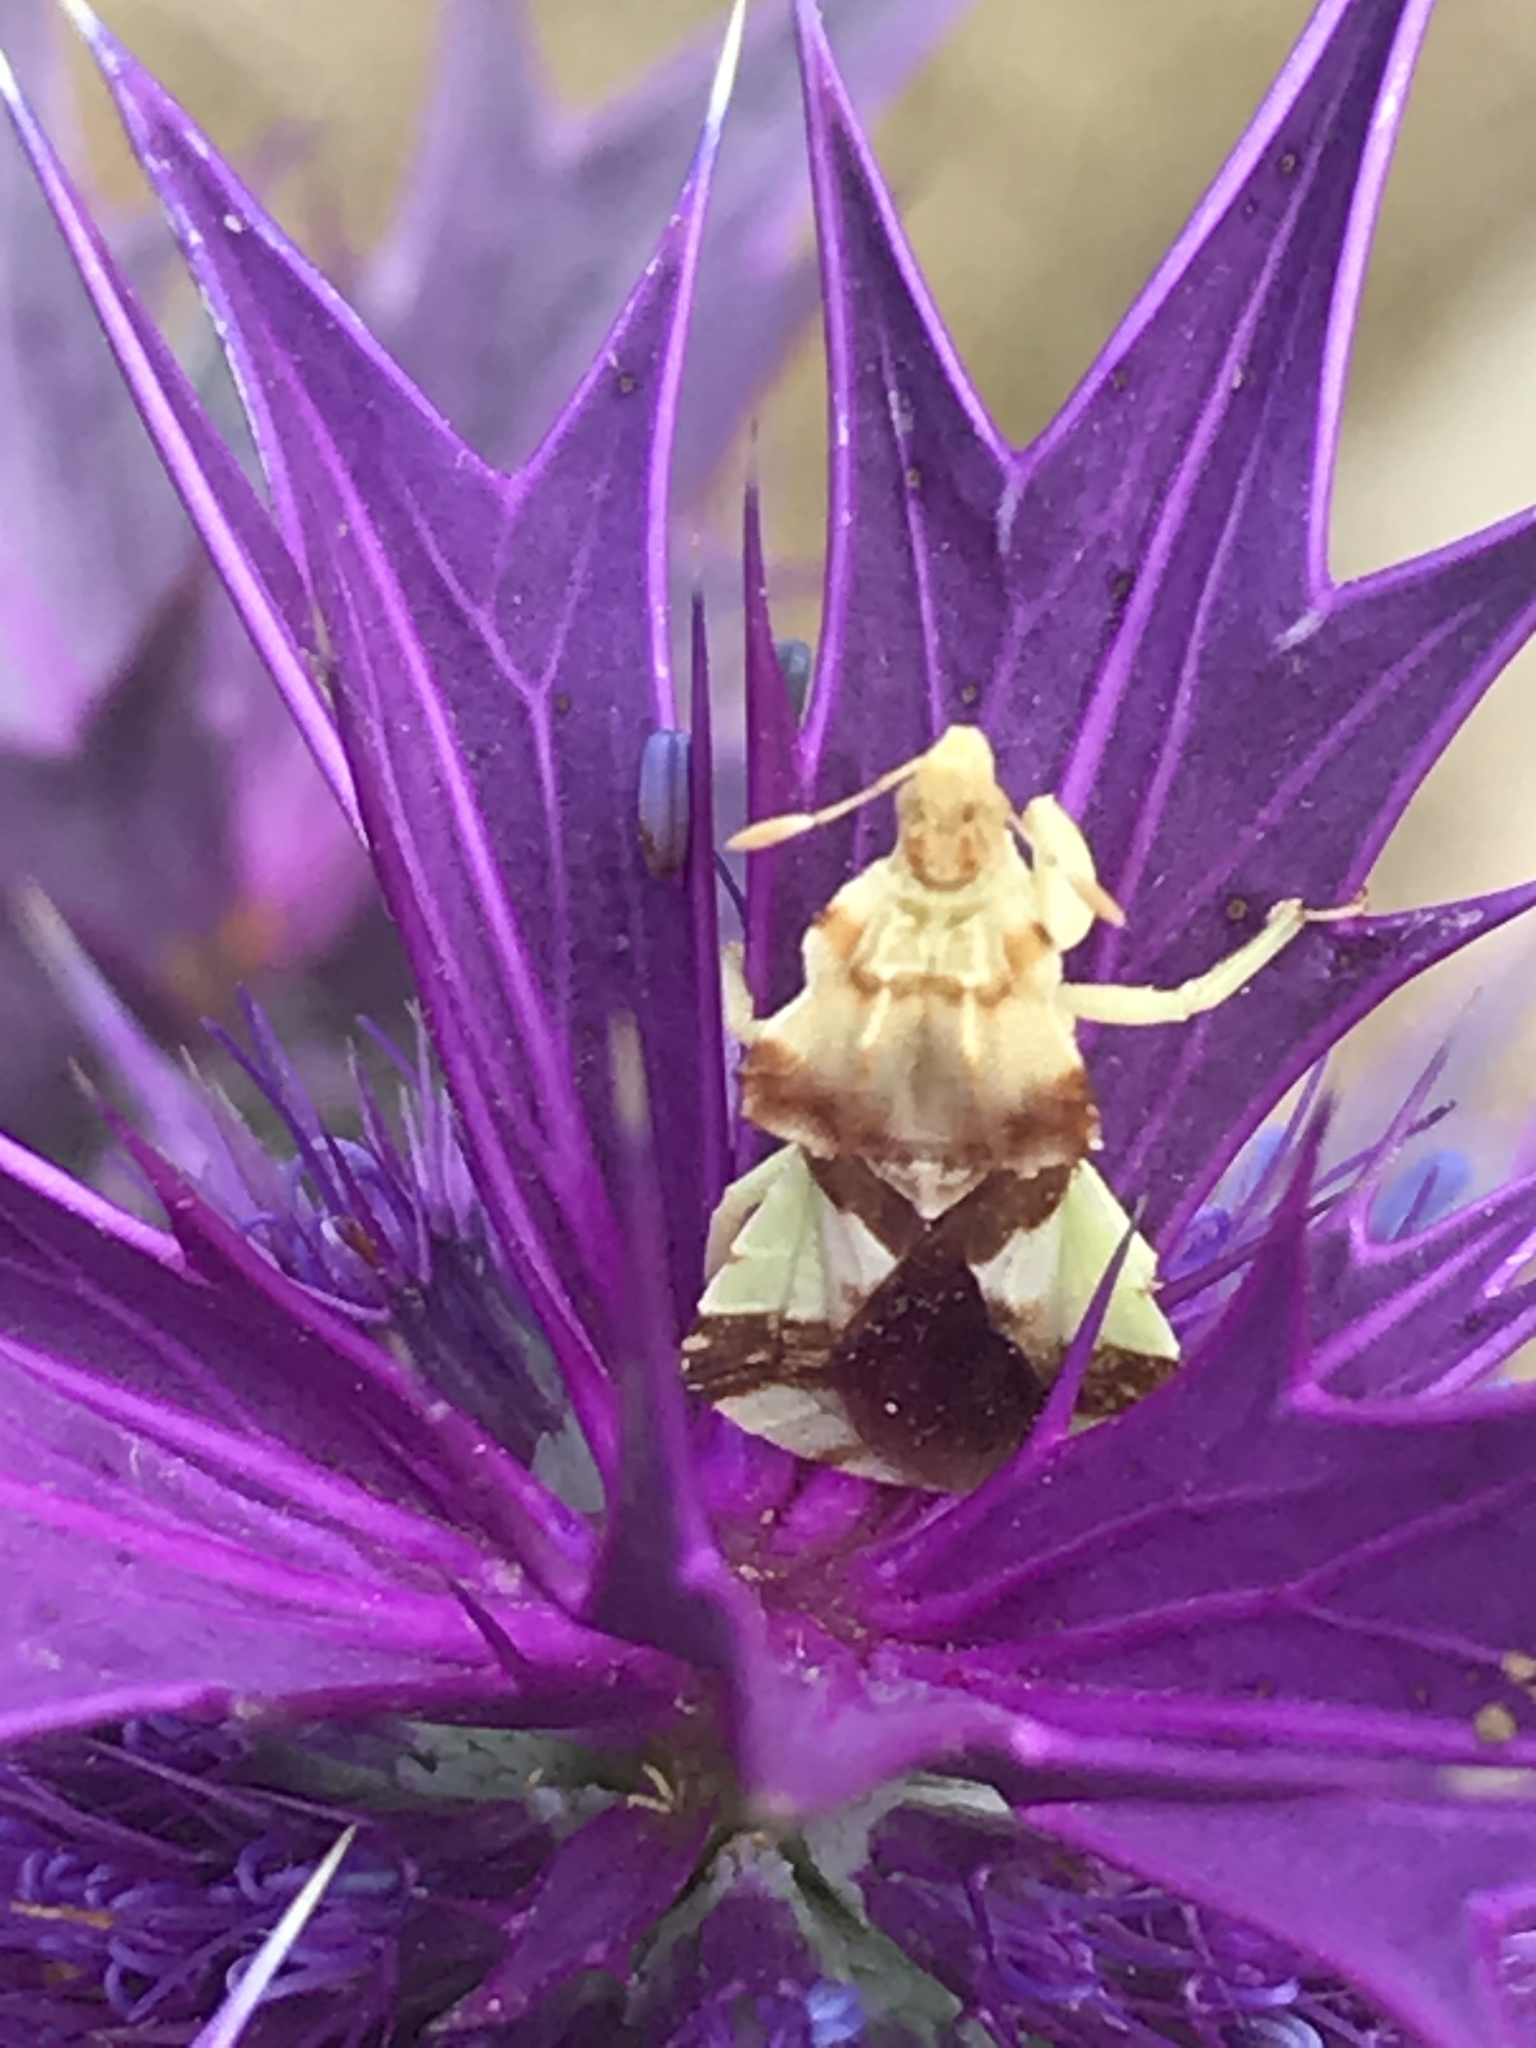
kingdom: Animalia
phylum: Arthropoda
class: Insecta
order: Hemiptera
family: Reduviidae
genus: Phymata
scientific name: Phymata americana
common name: Jagged ambush bug
